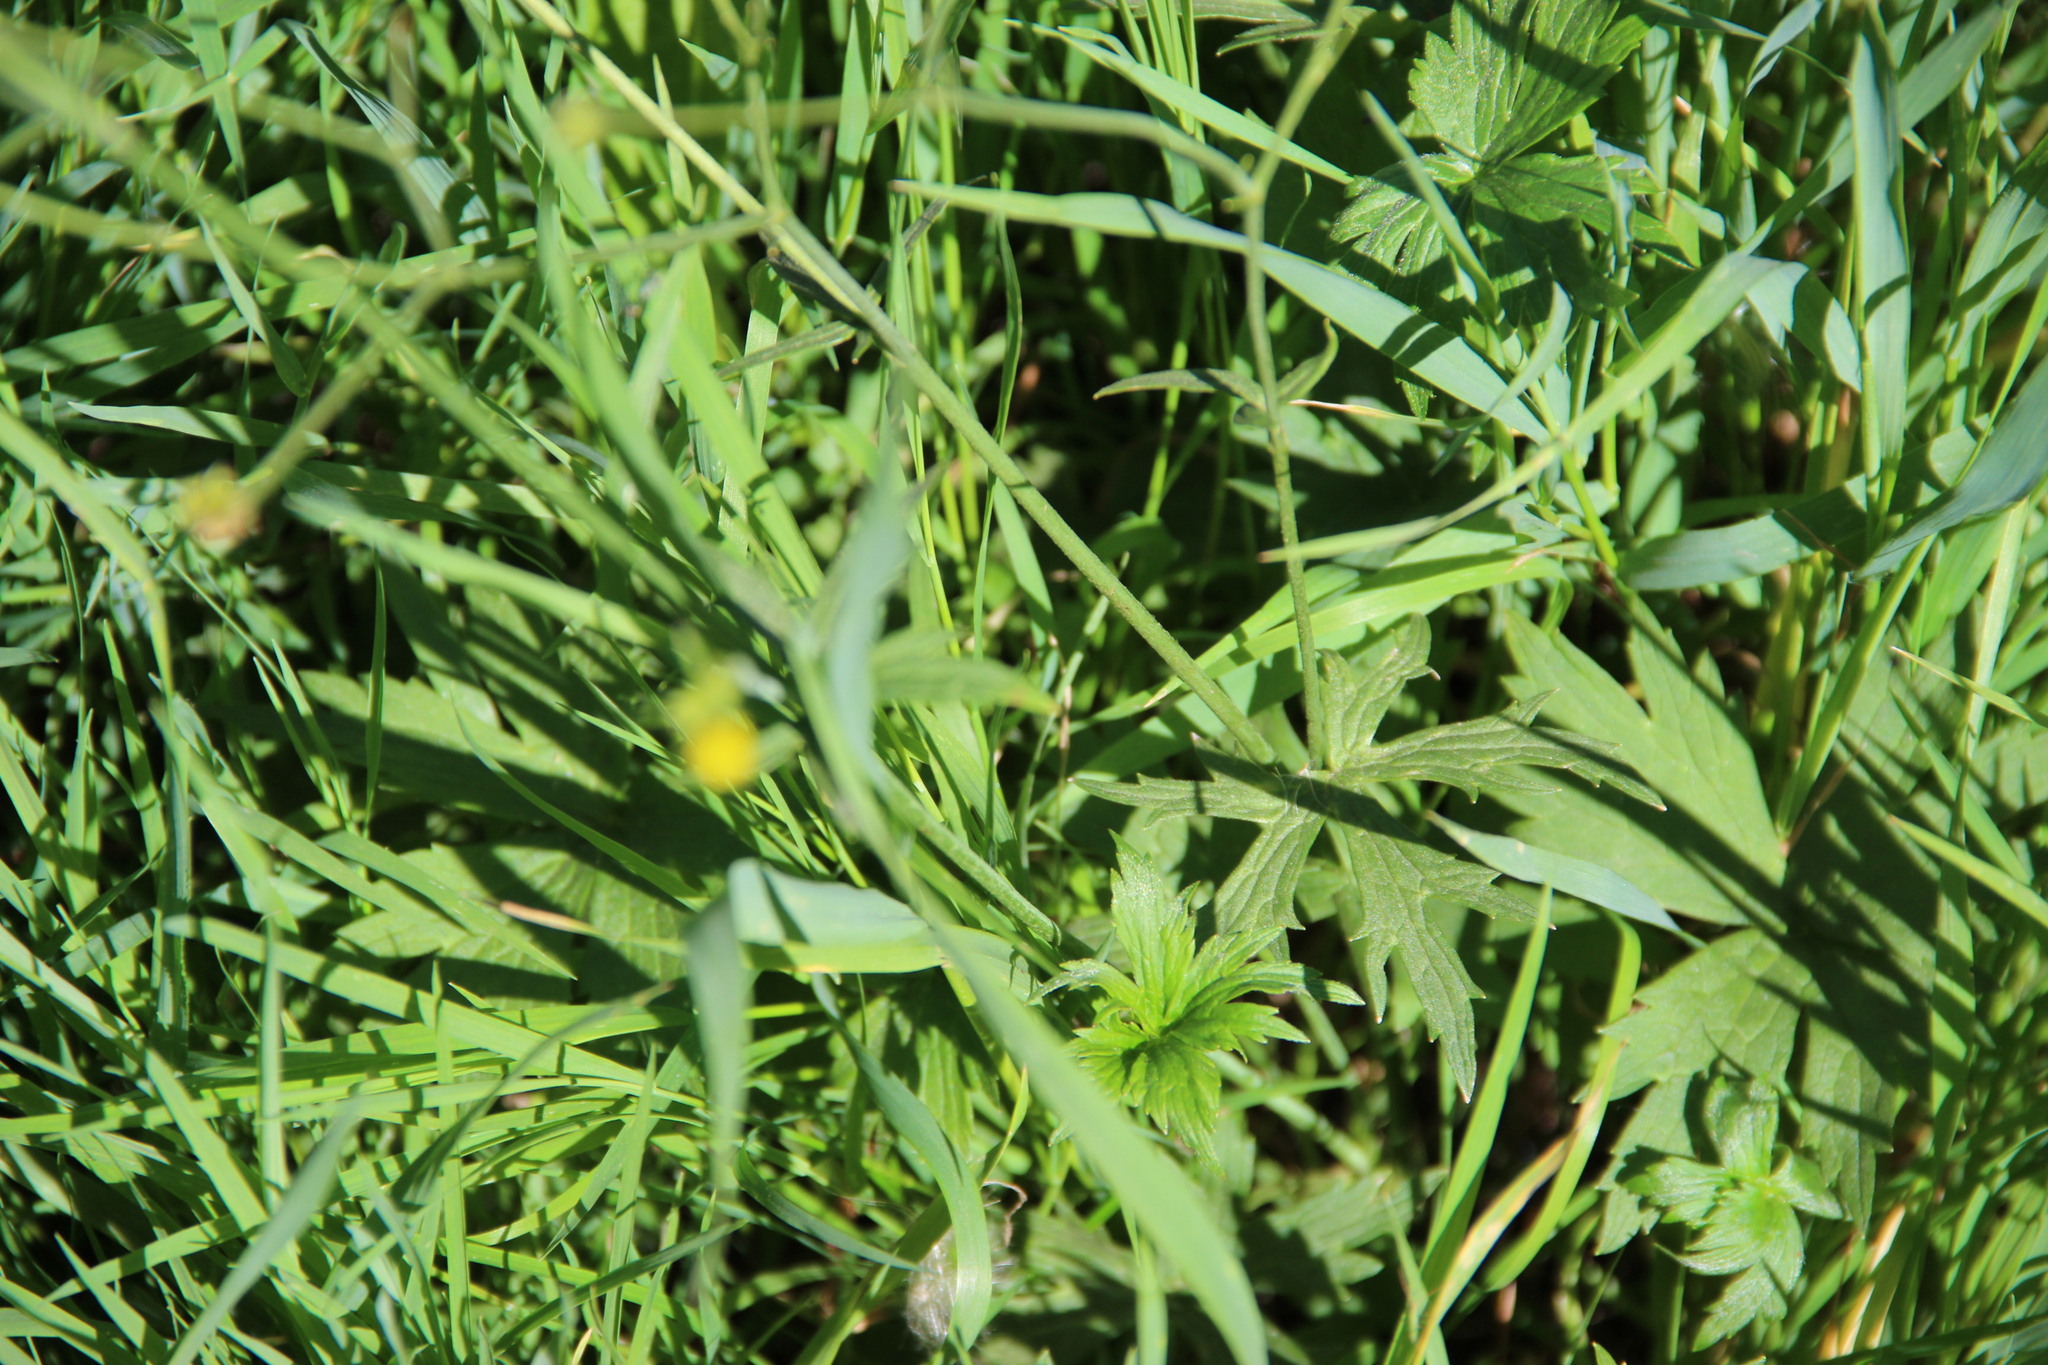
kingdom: Plantae
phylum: Tracheophyta
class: Magnoliopsida
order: Ranunculales
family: Ranunculaceae
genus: Ranunculus
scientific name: Ranunculus acris
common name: Meadow buttercup
